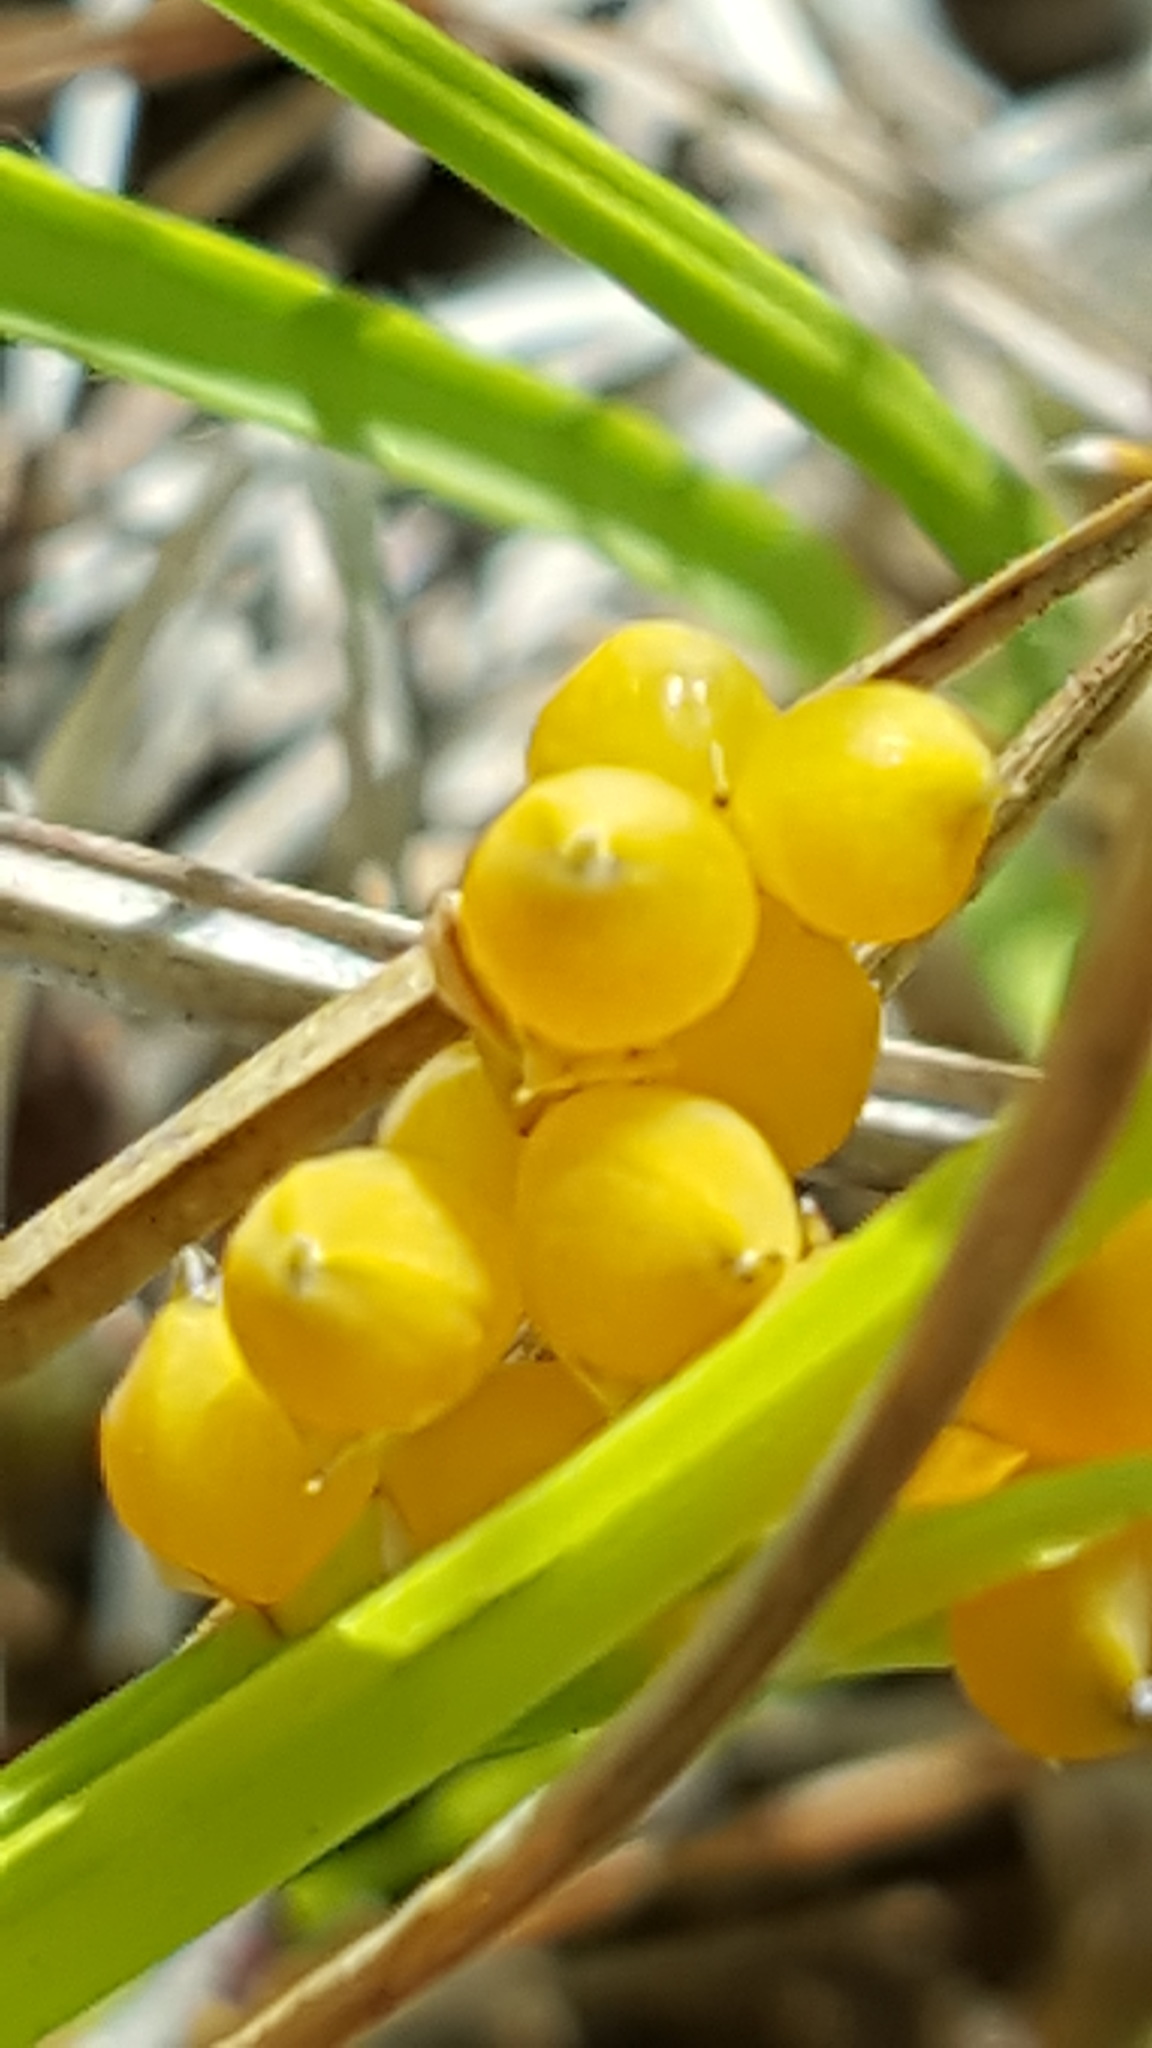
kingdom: Plantae
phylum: Tracheophyta
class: Liliopsida
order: Poales
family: Cyperaceae
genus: Carex
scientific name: Carex aurea
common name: Golden sedge
